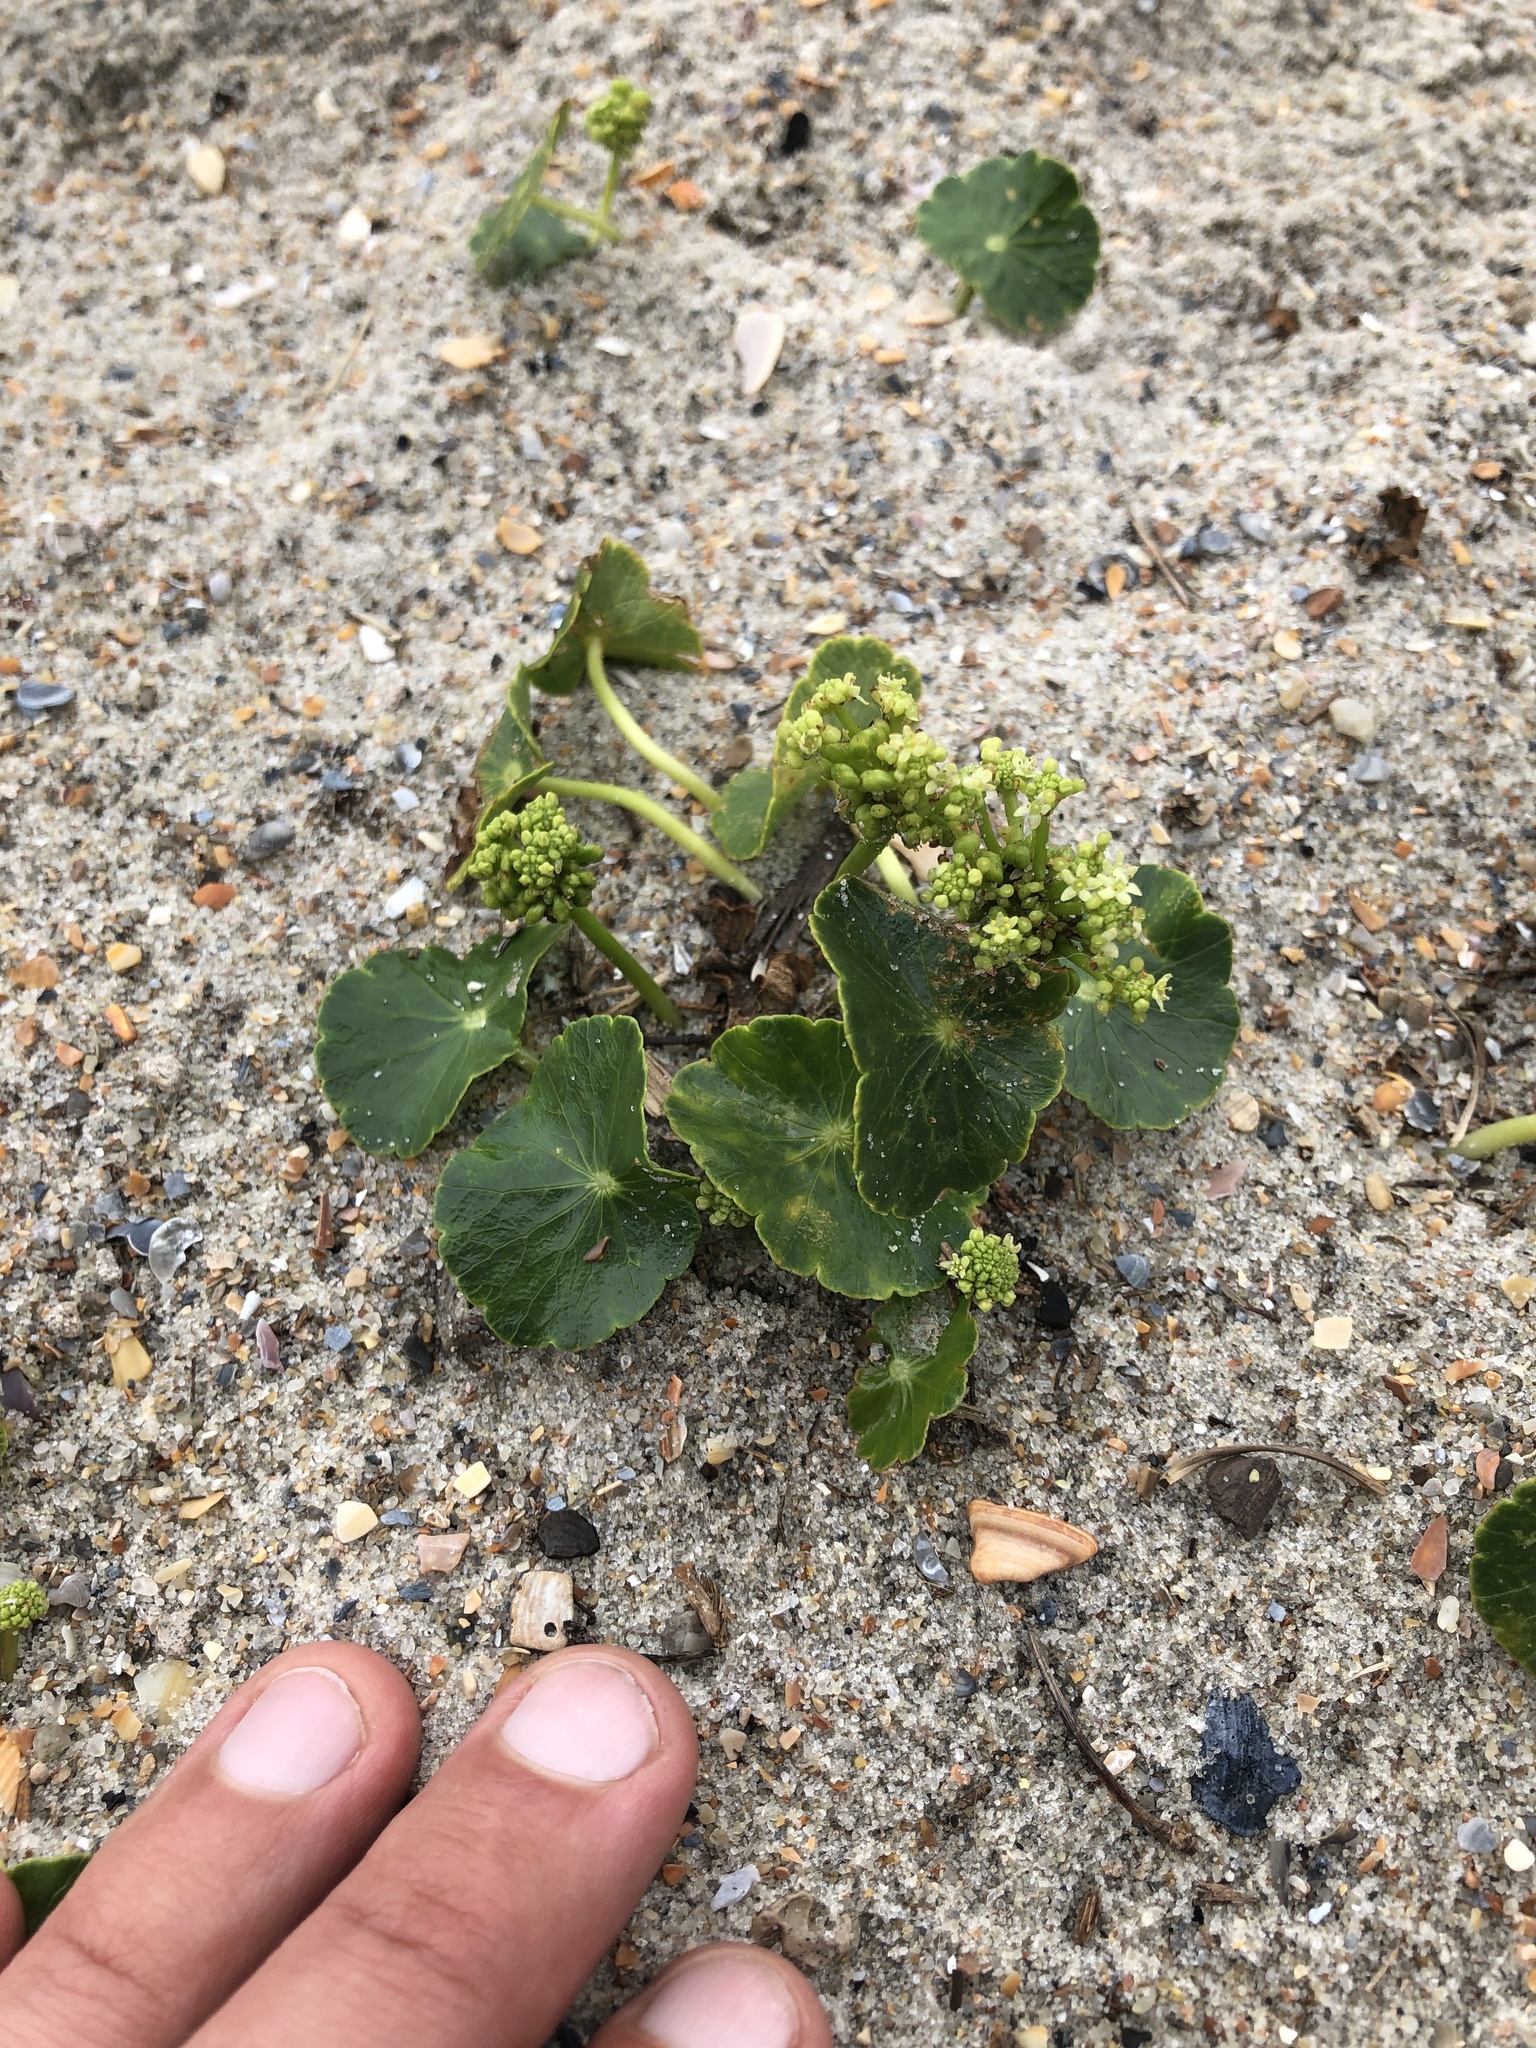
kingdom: Plantae
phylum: Tracheophyta
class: Magnoliopsida
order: Apiales
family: Araliaceae
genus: Hydrocotyle
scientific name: Hydrocotyle bonariensis
